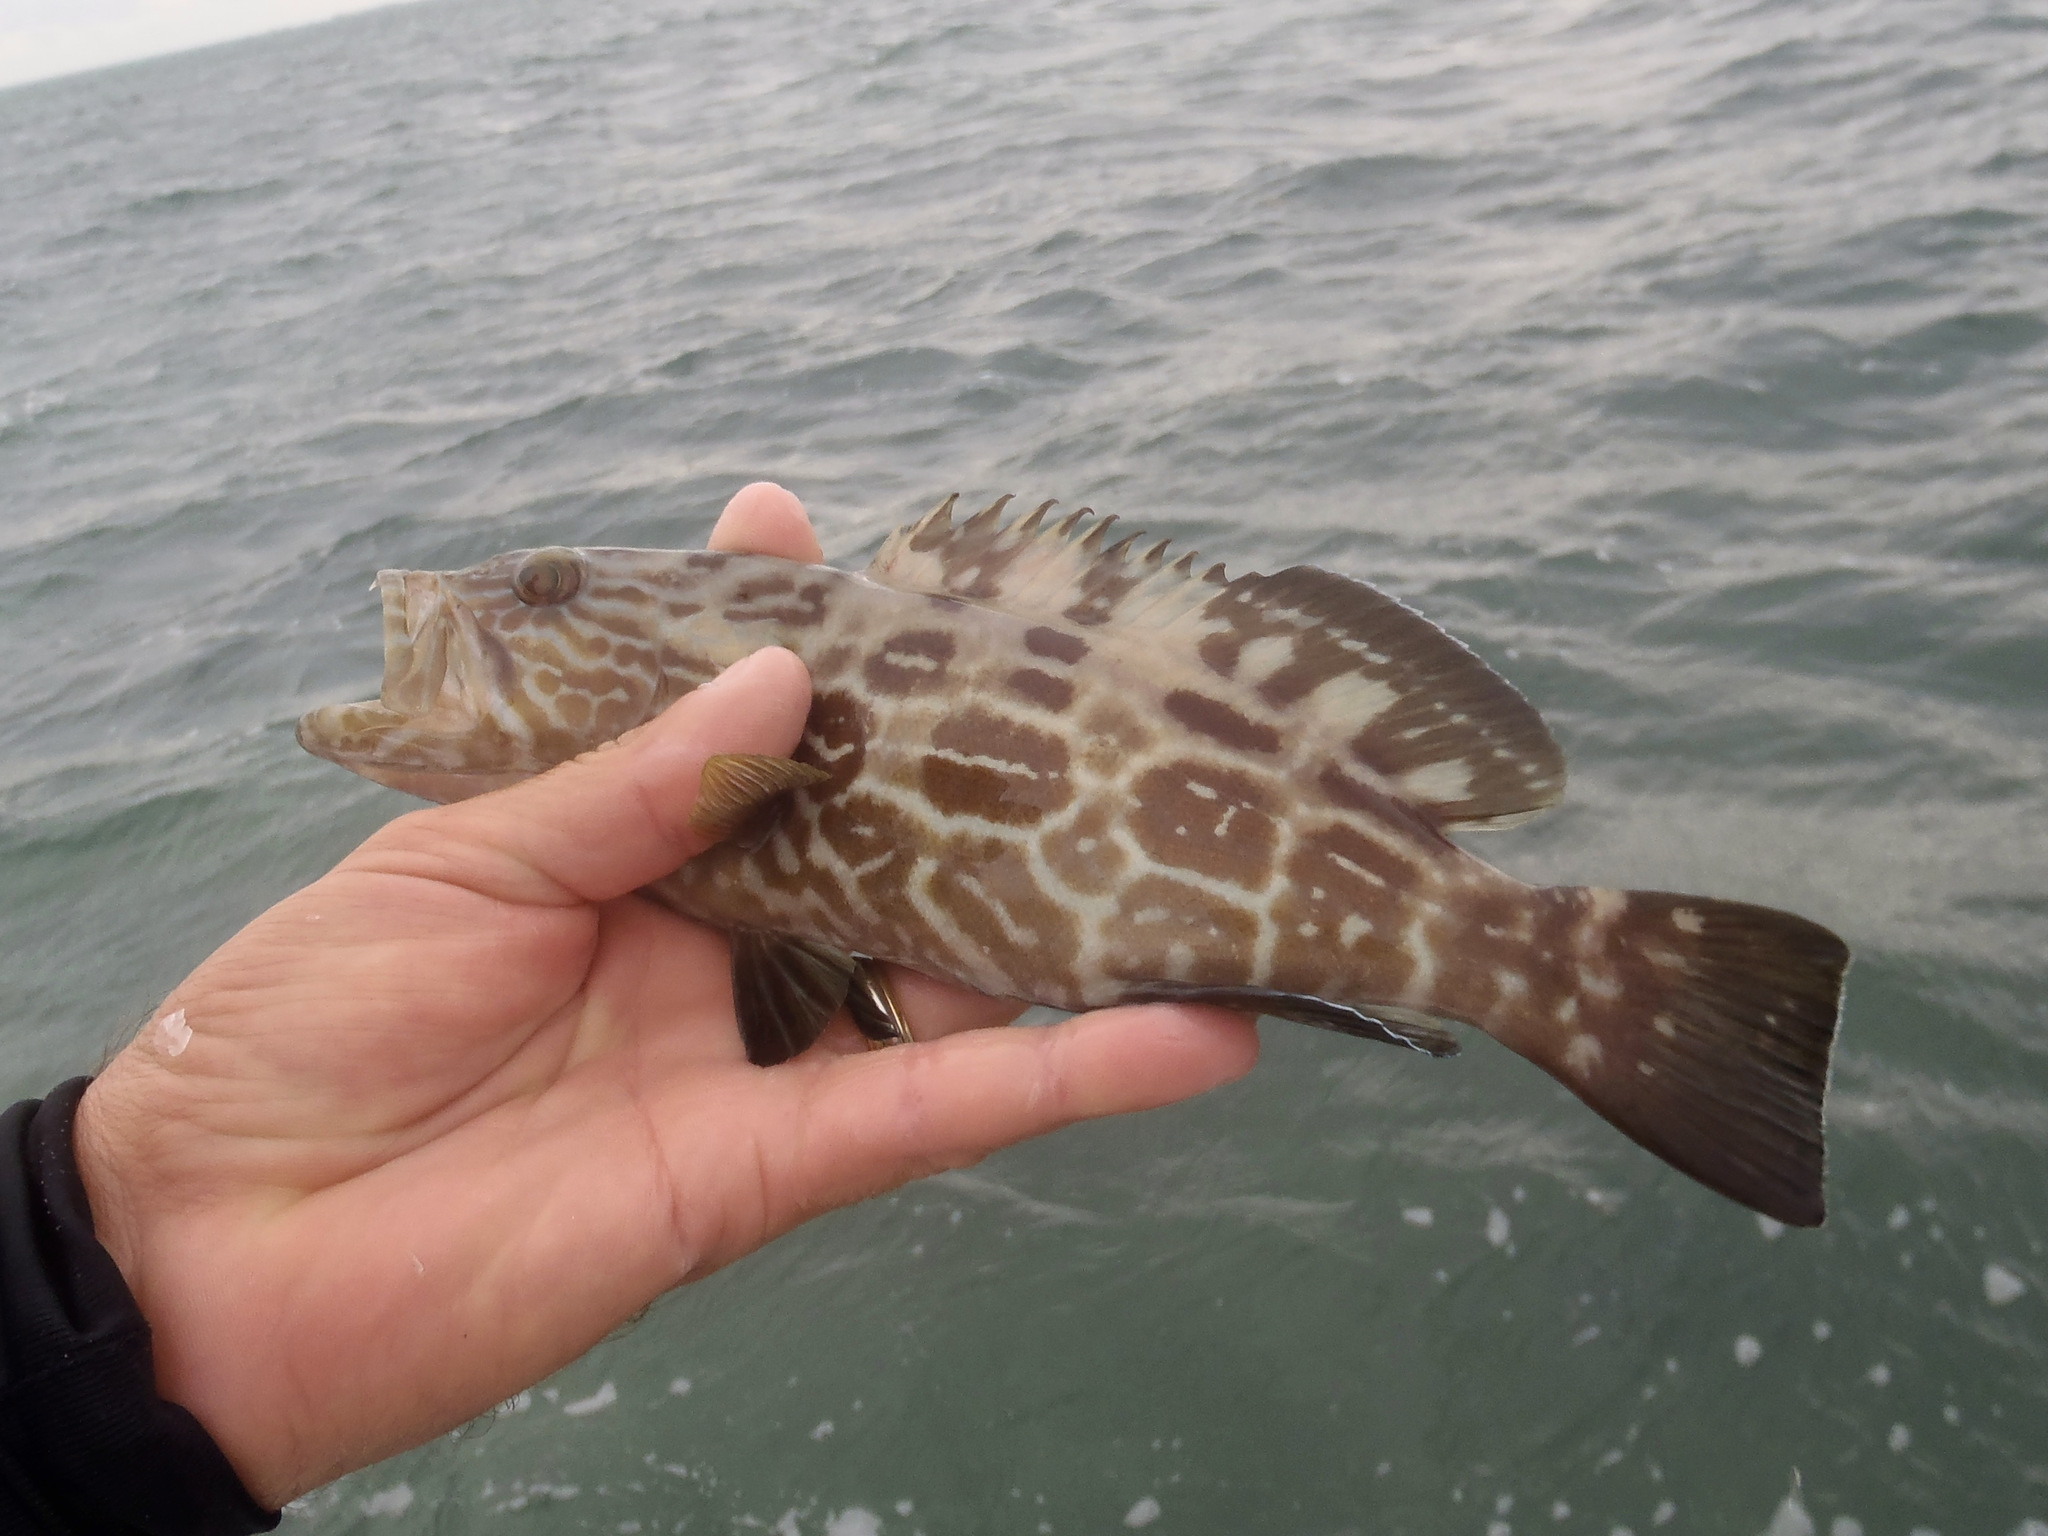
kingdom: Animalia
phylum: Chordata
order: Perciformes
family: Serranidae
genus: Mycteroperca
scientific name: Mycteroperca bonaci
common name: Black grouper
